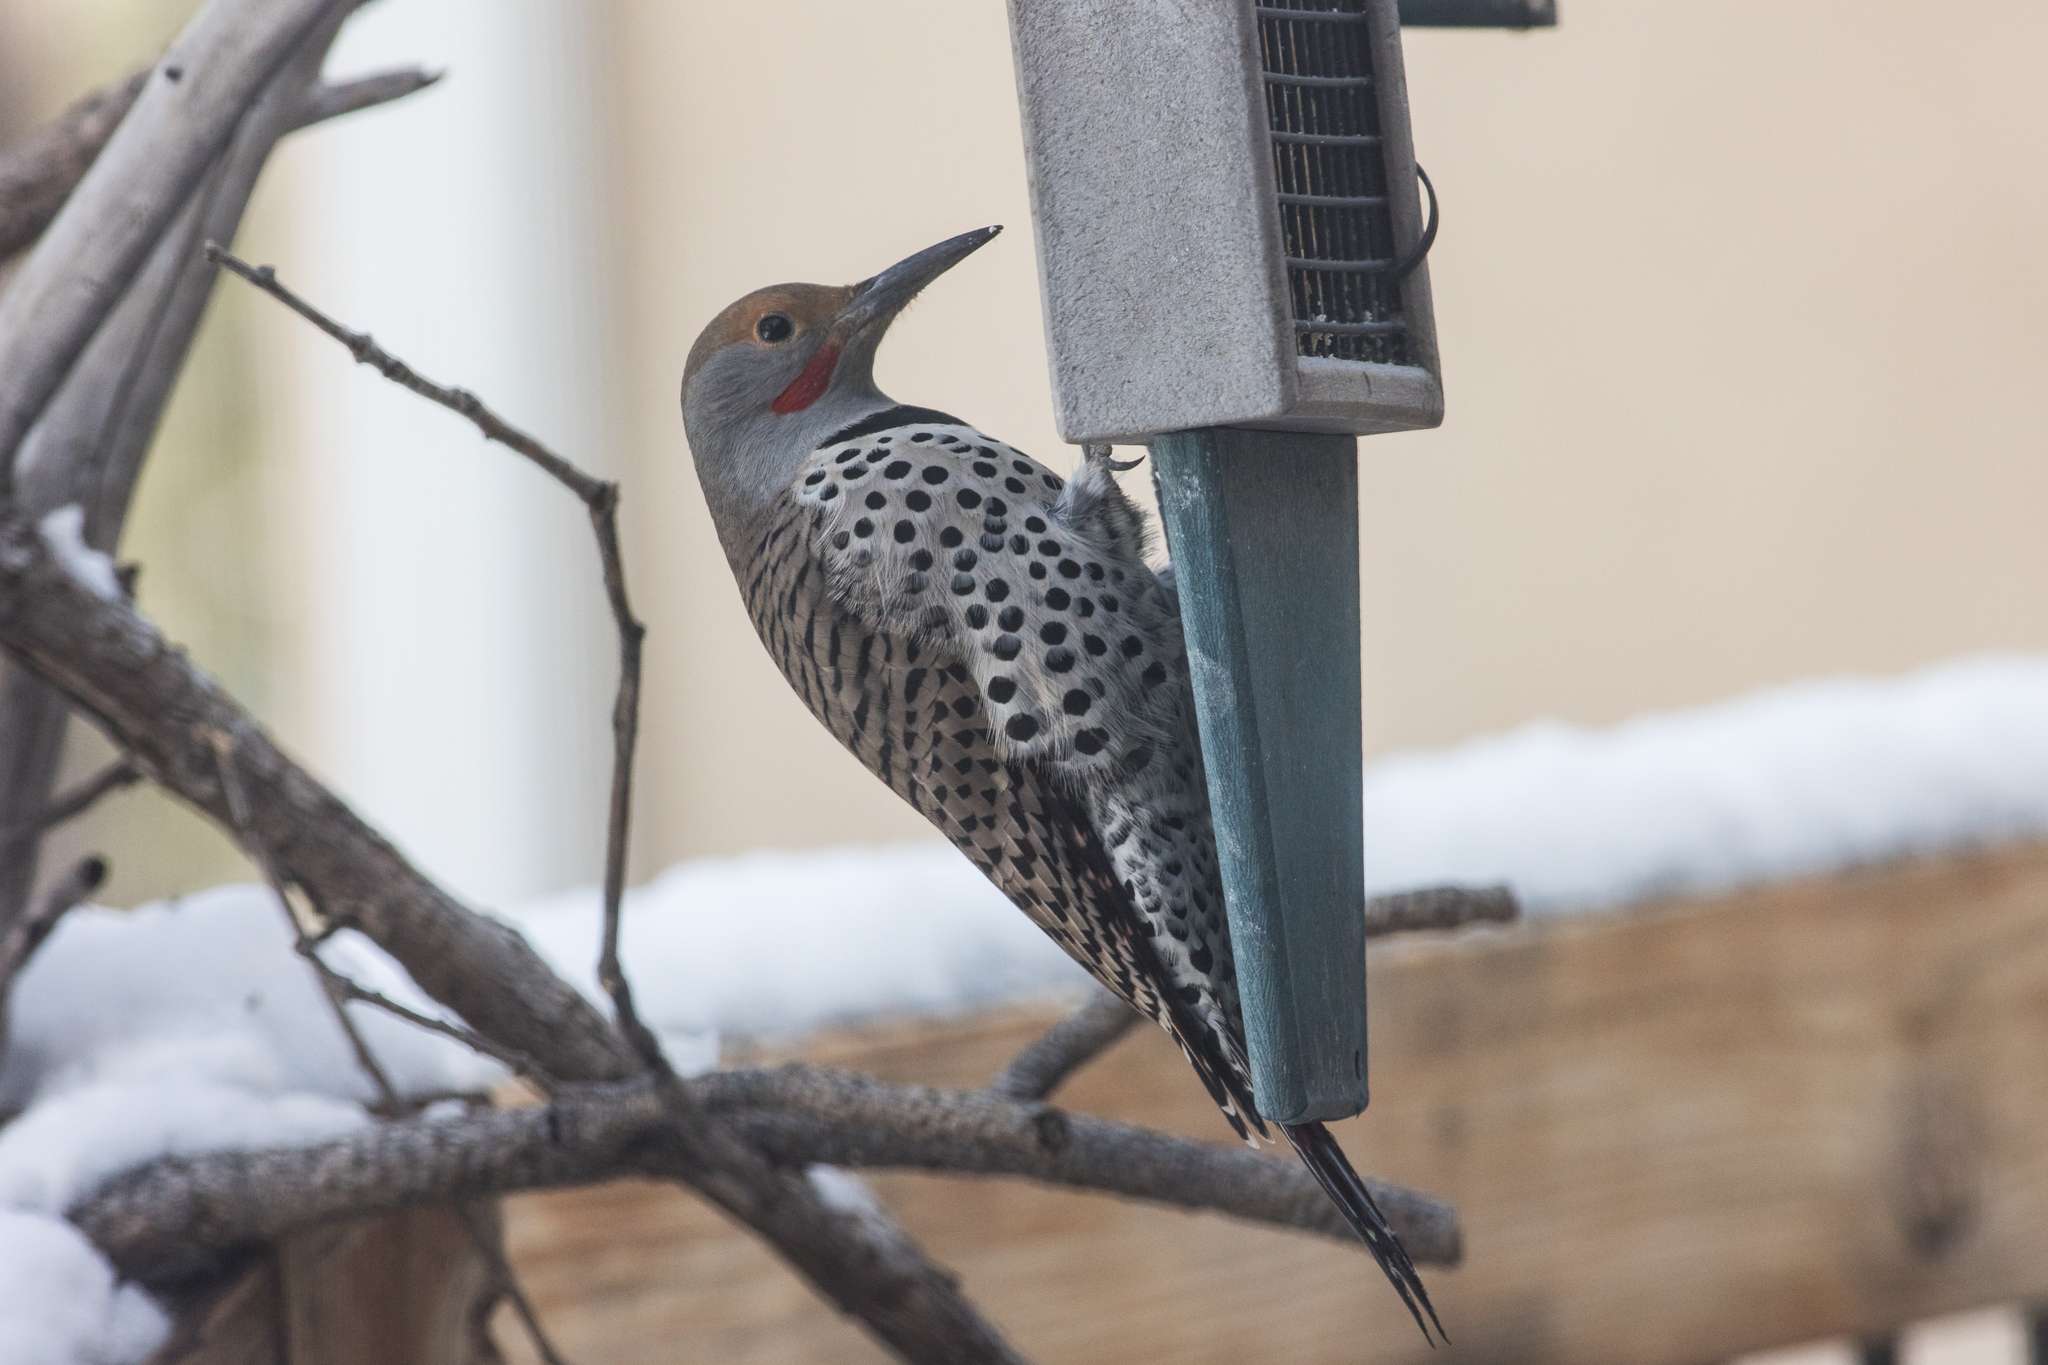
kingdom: Animalia
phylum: Chordata
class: Aves
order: Piciformes
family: Picidae
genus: Colaptes
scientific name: Colaptes auratus
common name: Northern flicker
